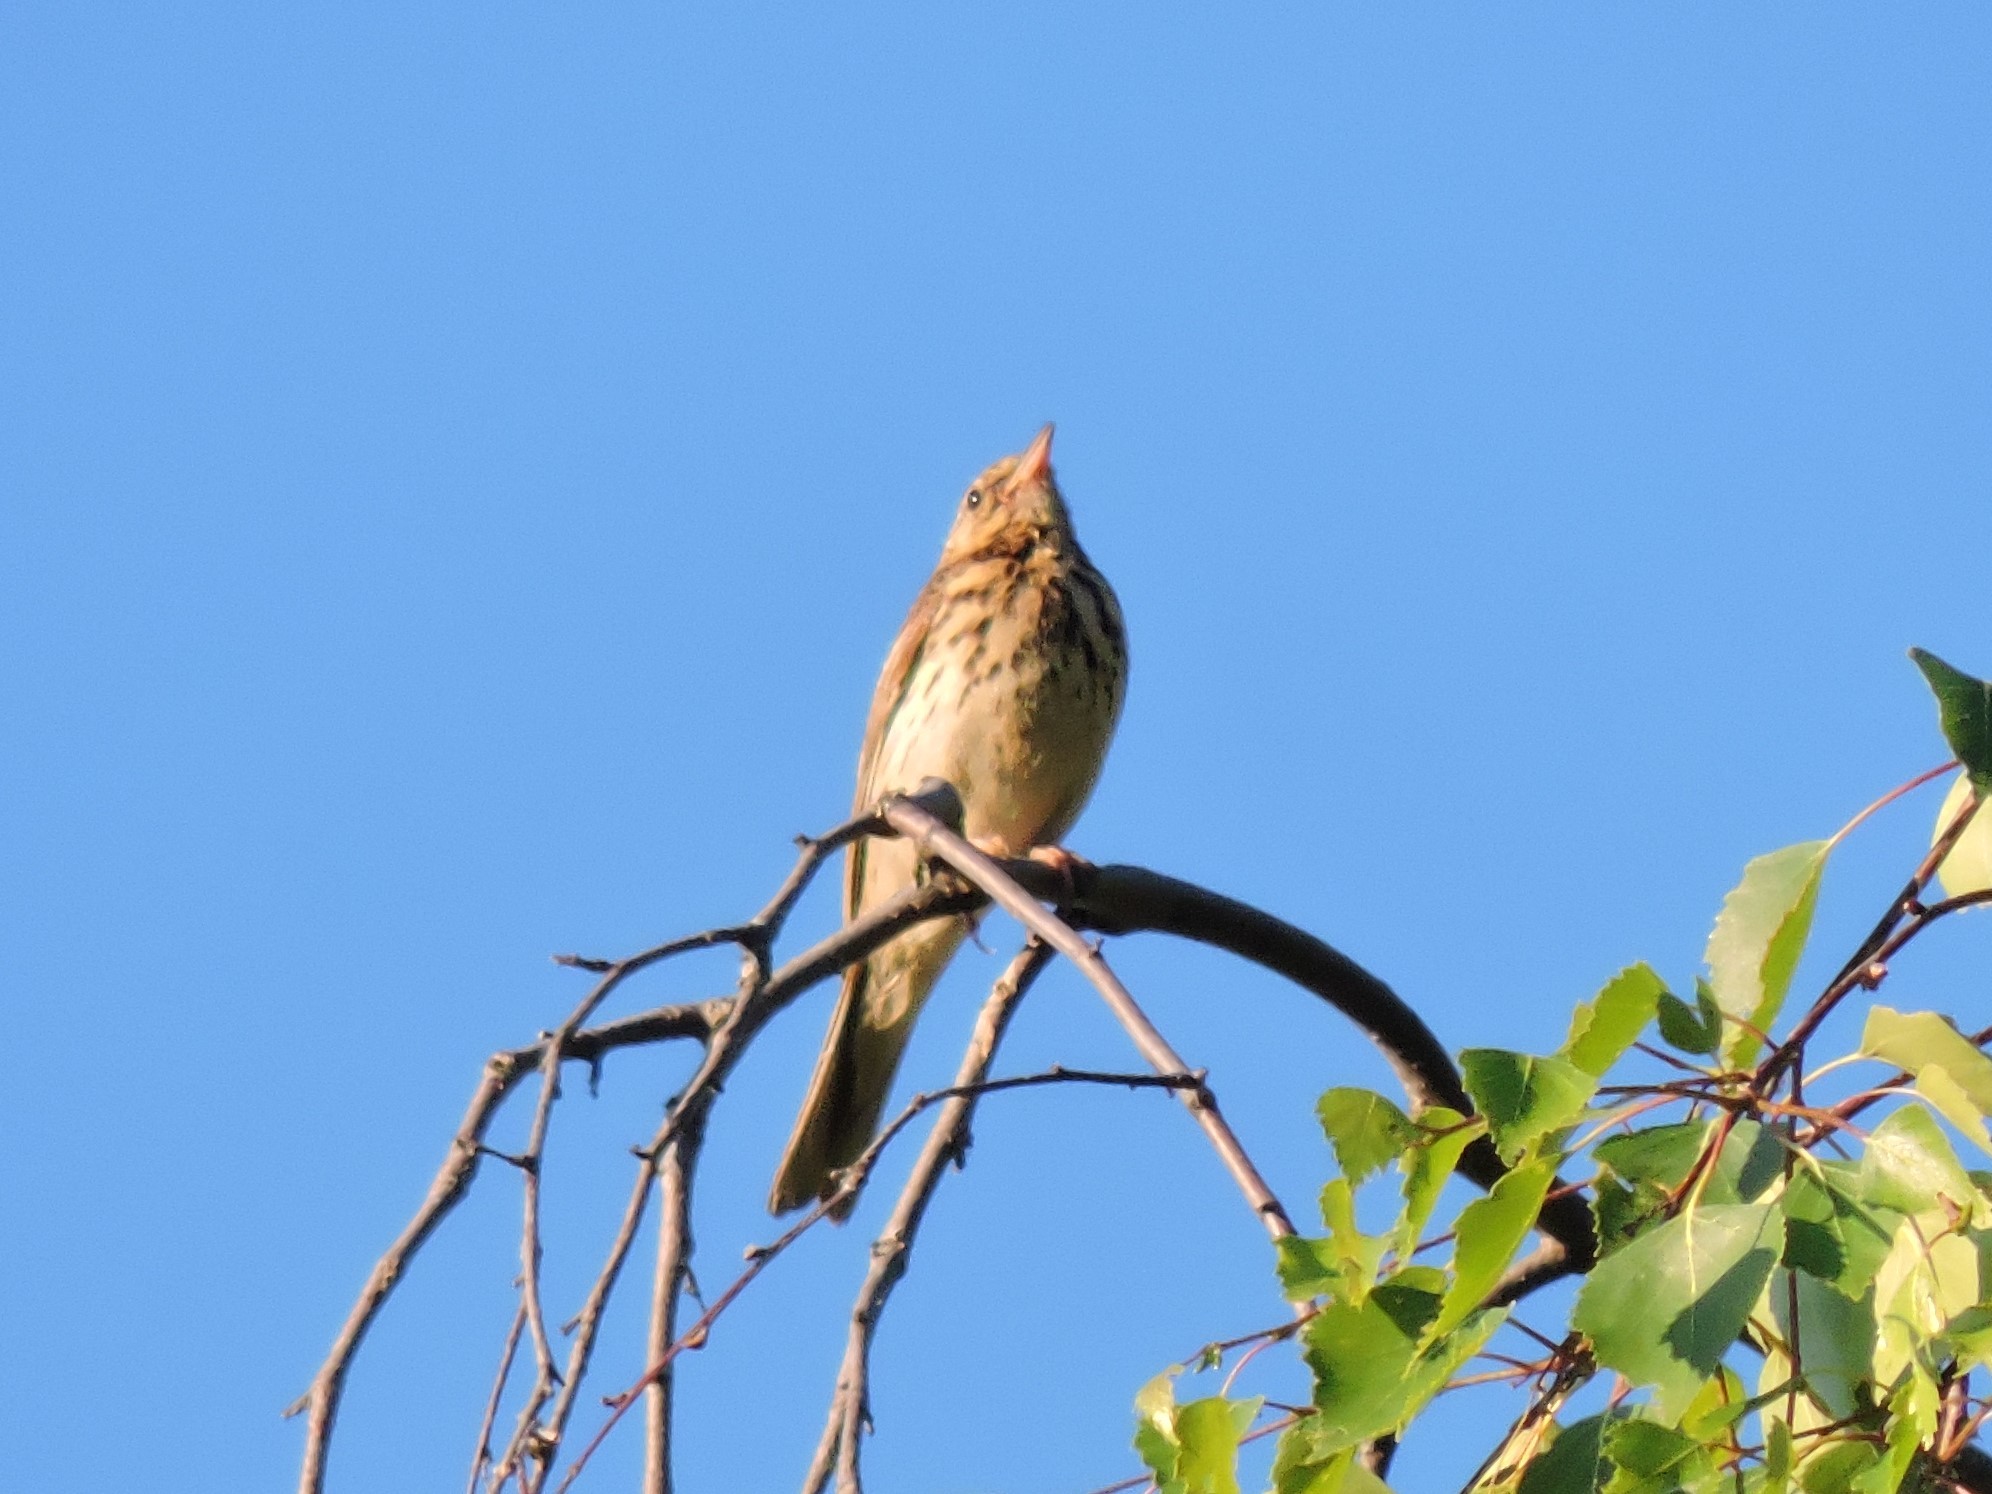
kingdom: Animalia
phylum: Chordata
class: Aves
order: Passeriformes
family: Motacillidae
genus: Anthus
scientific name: Anthus trivialis
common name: Tree pipit
